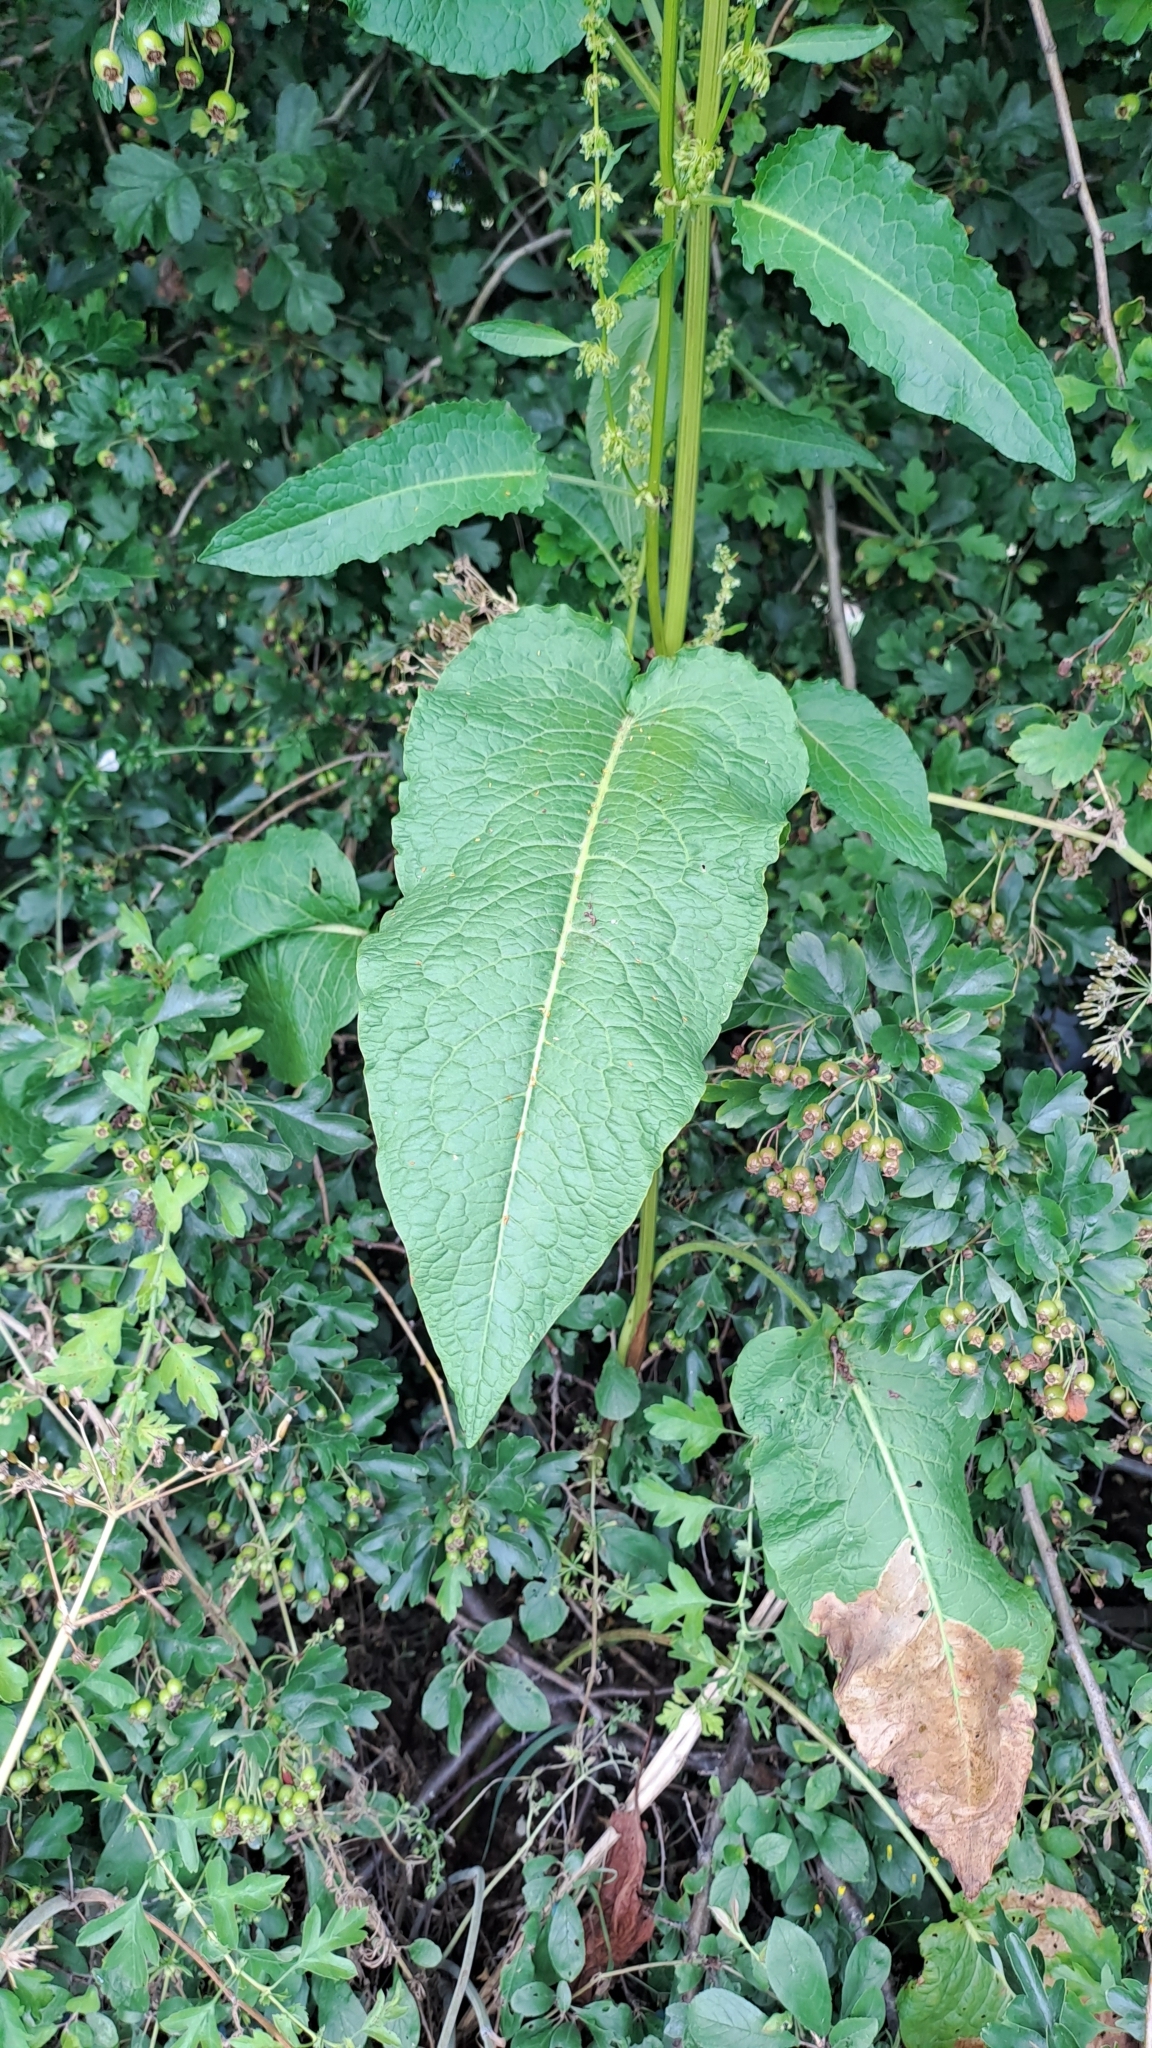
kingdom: Plantae
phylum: Tracheophyta
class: Magnoliopsida
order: Caryophyllales
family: Polygonaceae
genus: Rumex
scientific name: Rumex obtusifolius
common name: Bitter dock
